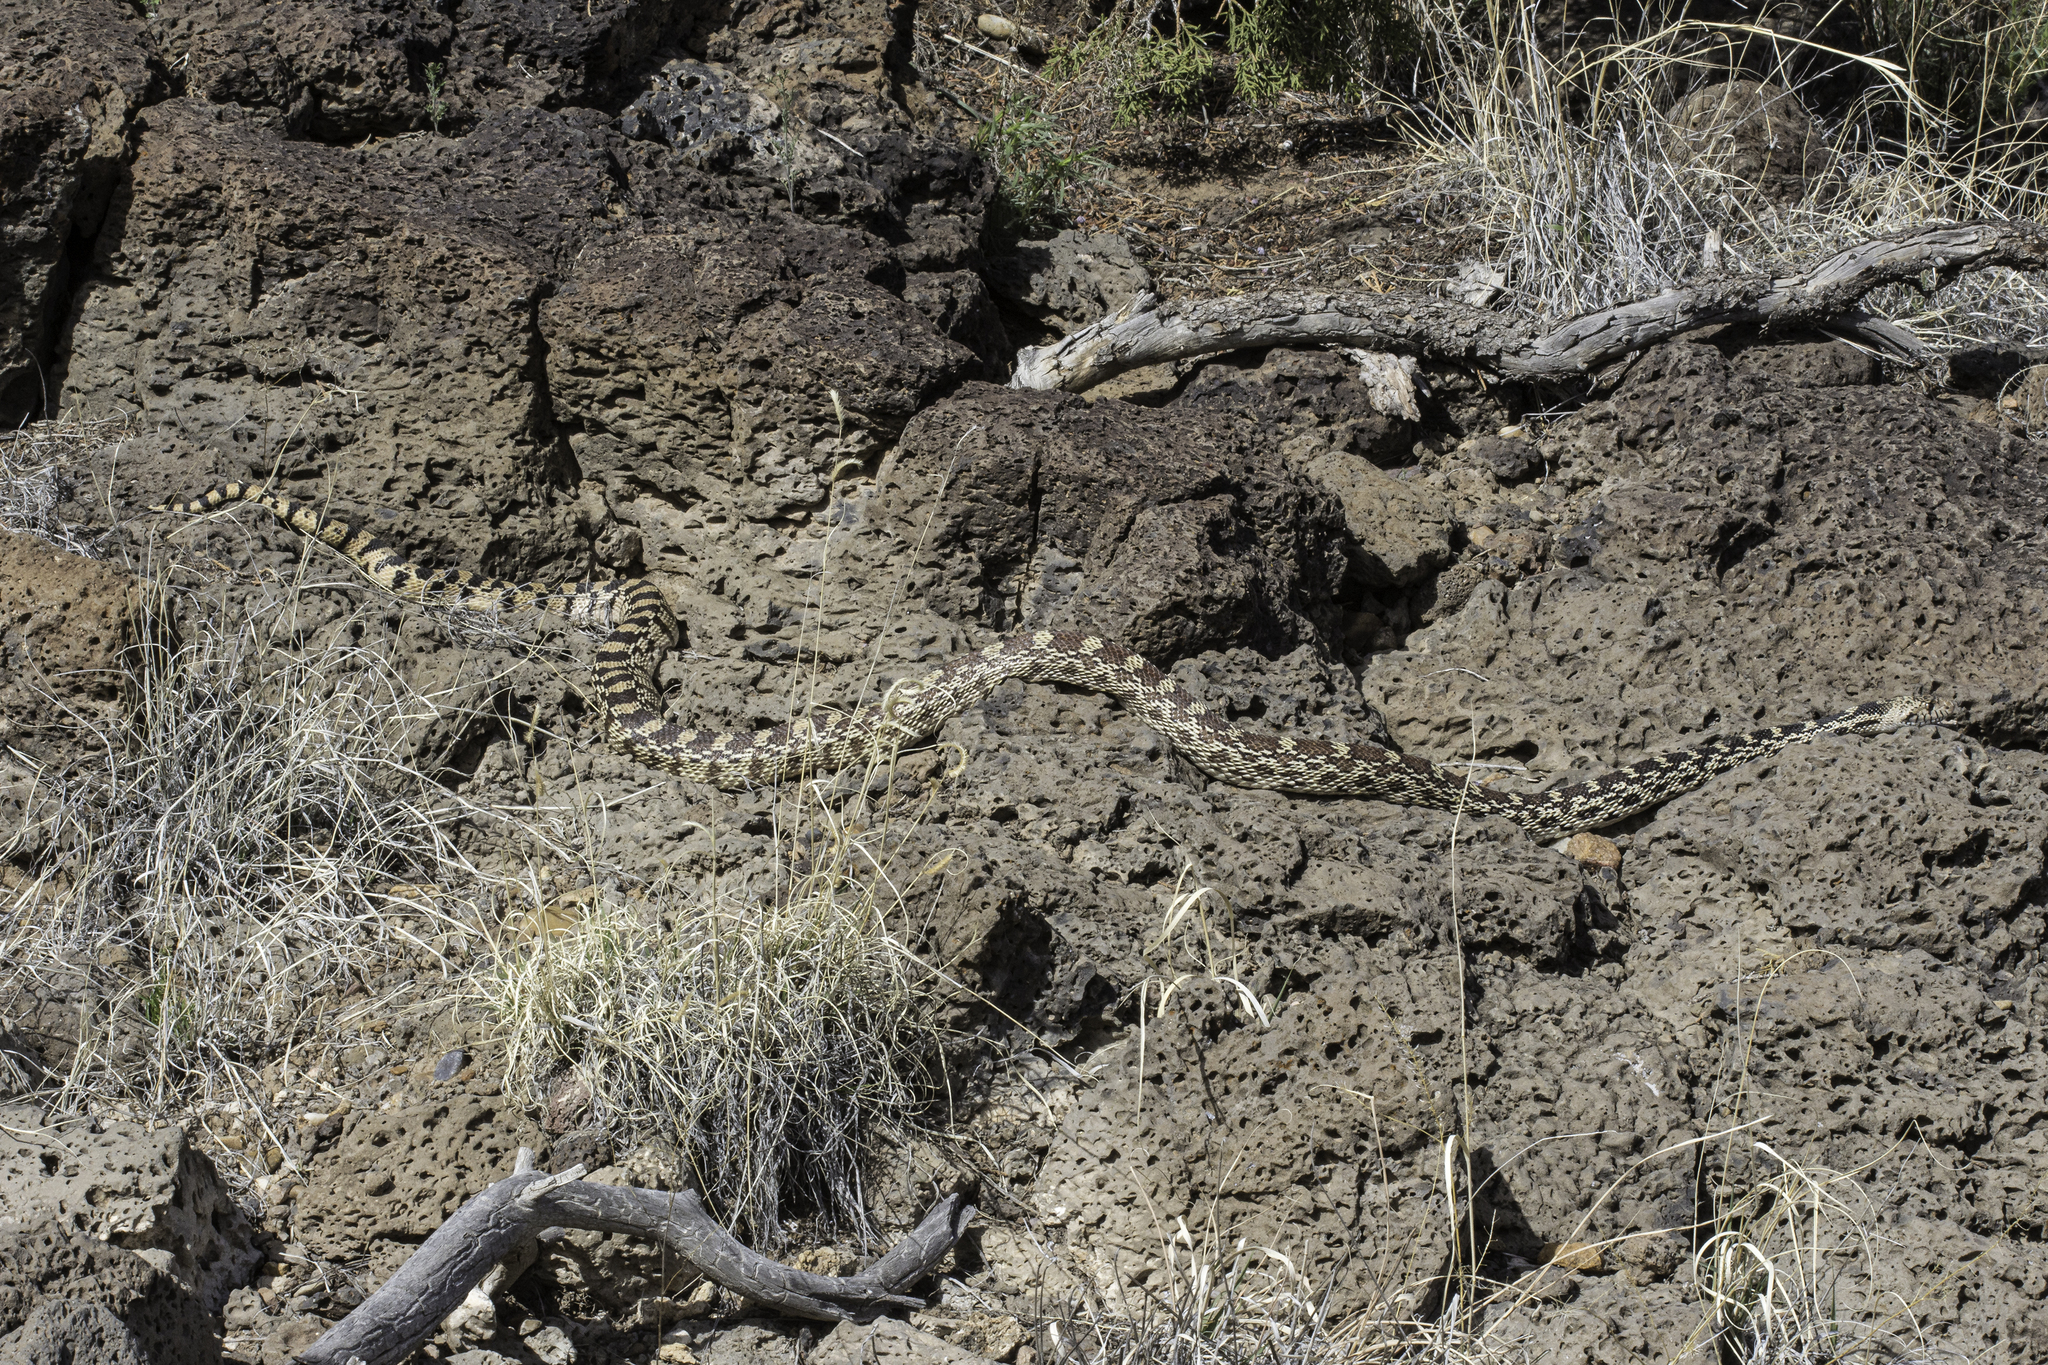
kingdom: Animalia
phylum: Chordata
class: Squamata
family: Colubridae
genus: Pituophis
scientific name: Pituophis catenifer
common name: Gopher snake
